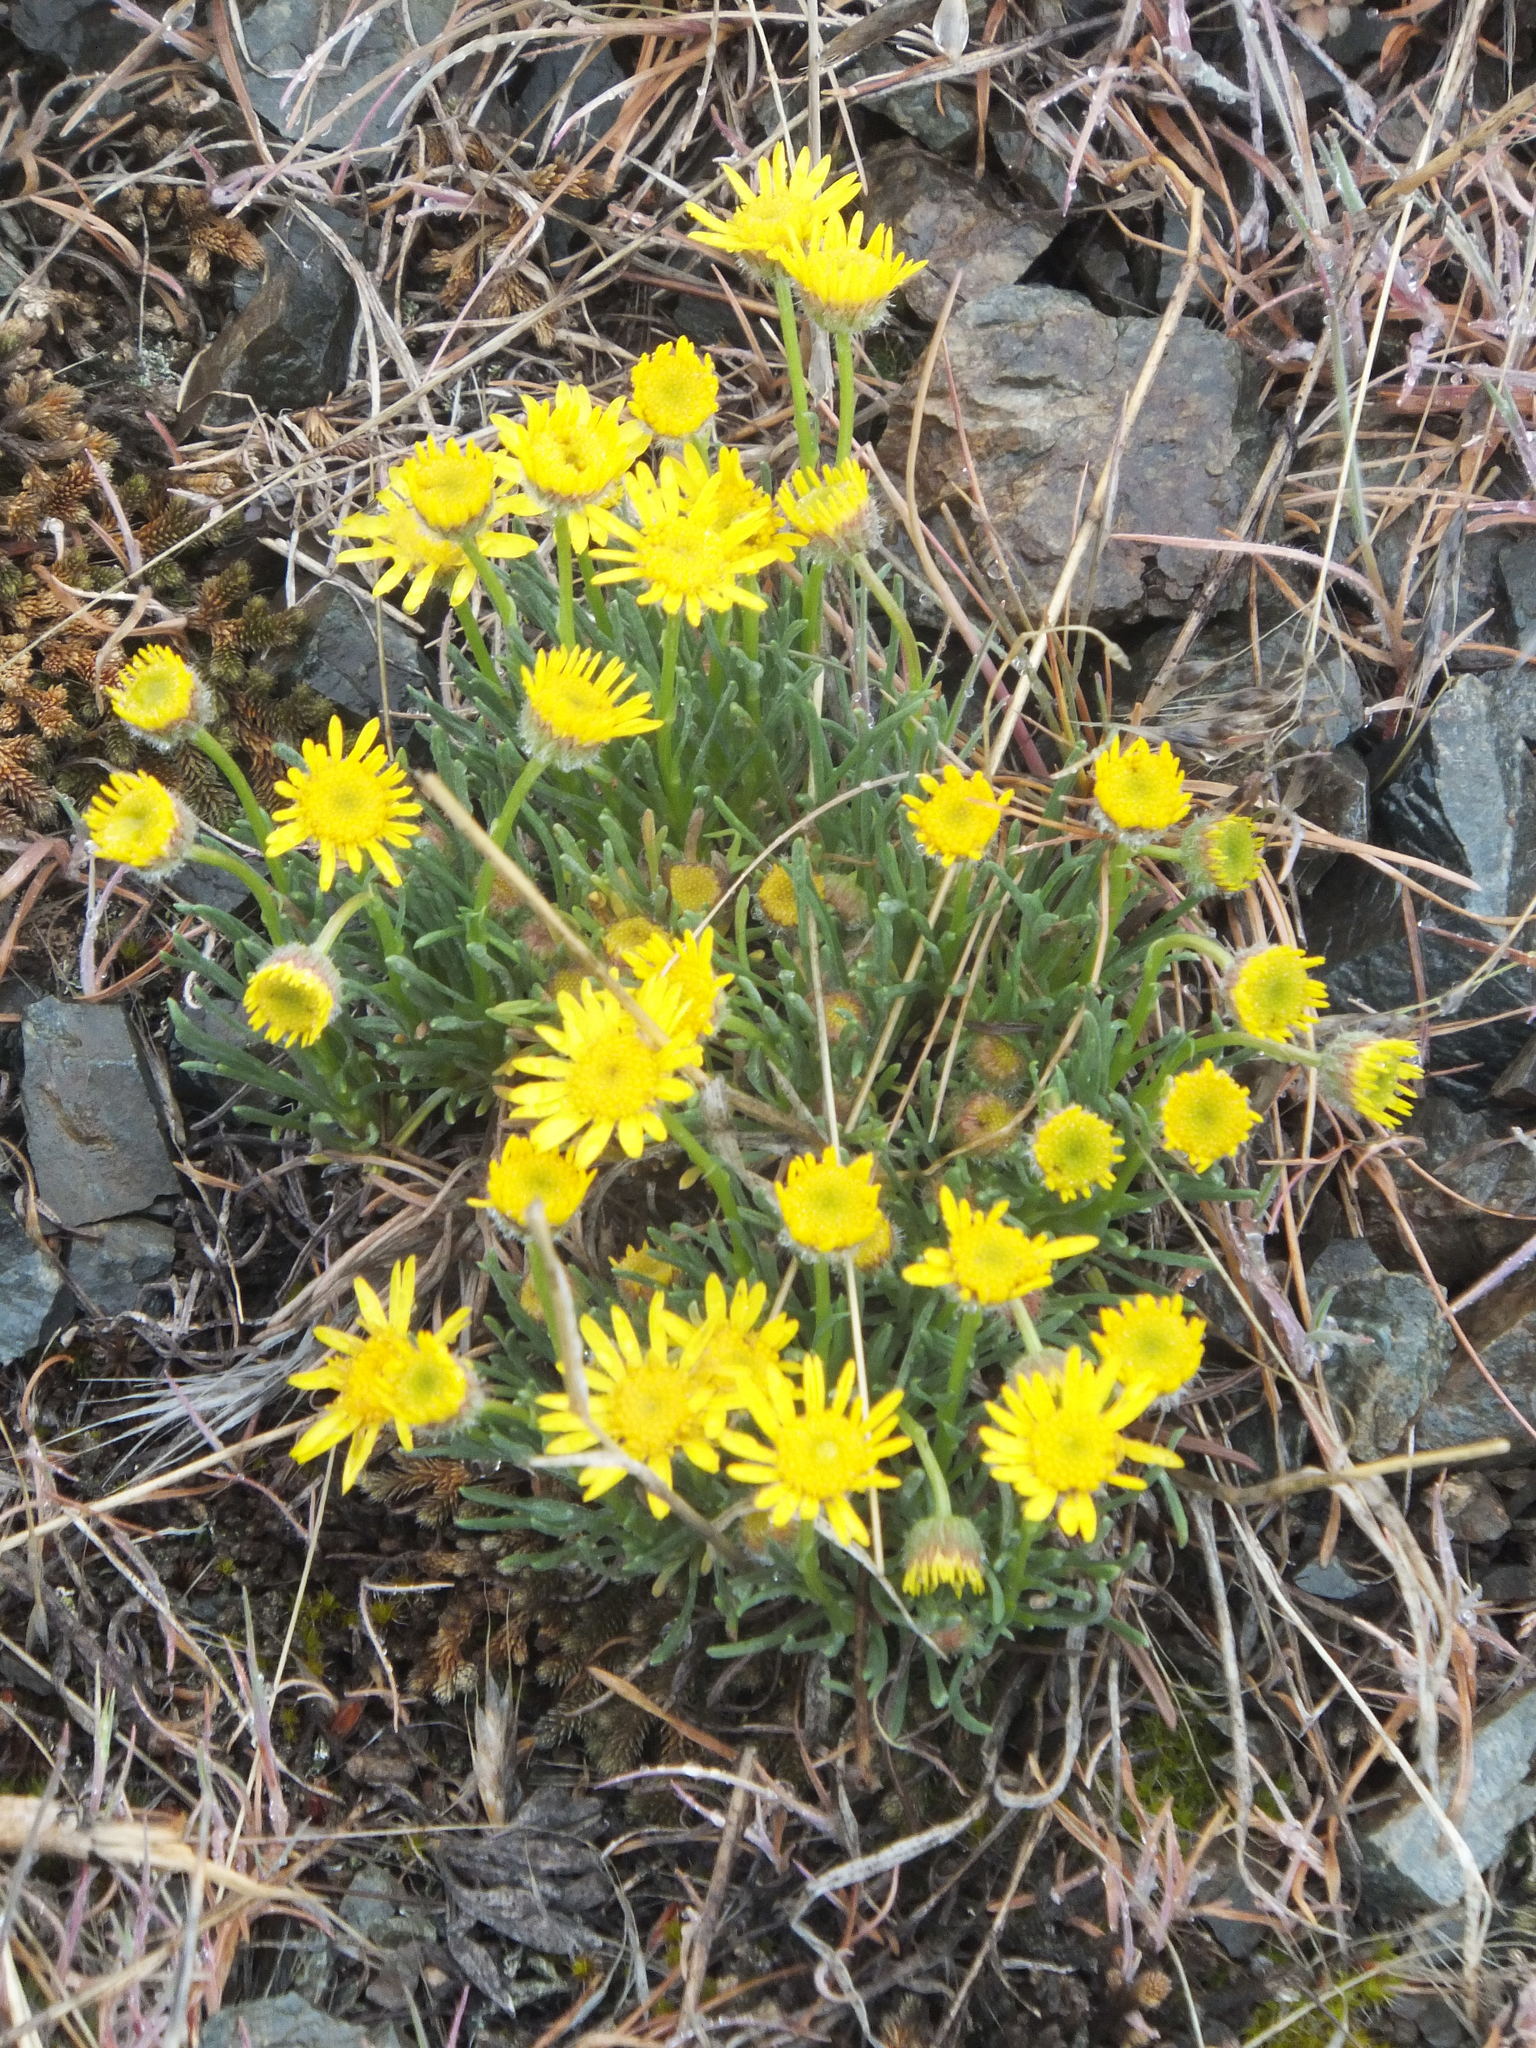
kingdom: Plantae
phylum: Tracheophyta
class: Magnoliopsida
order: Asterales
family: Asteraceae
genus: Erigeron
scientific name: Erigeron linearis
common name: Desert yellow fleabane
